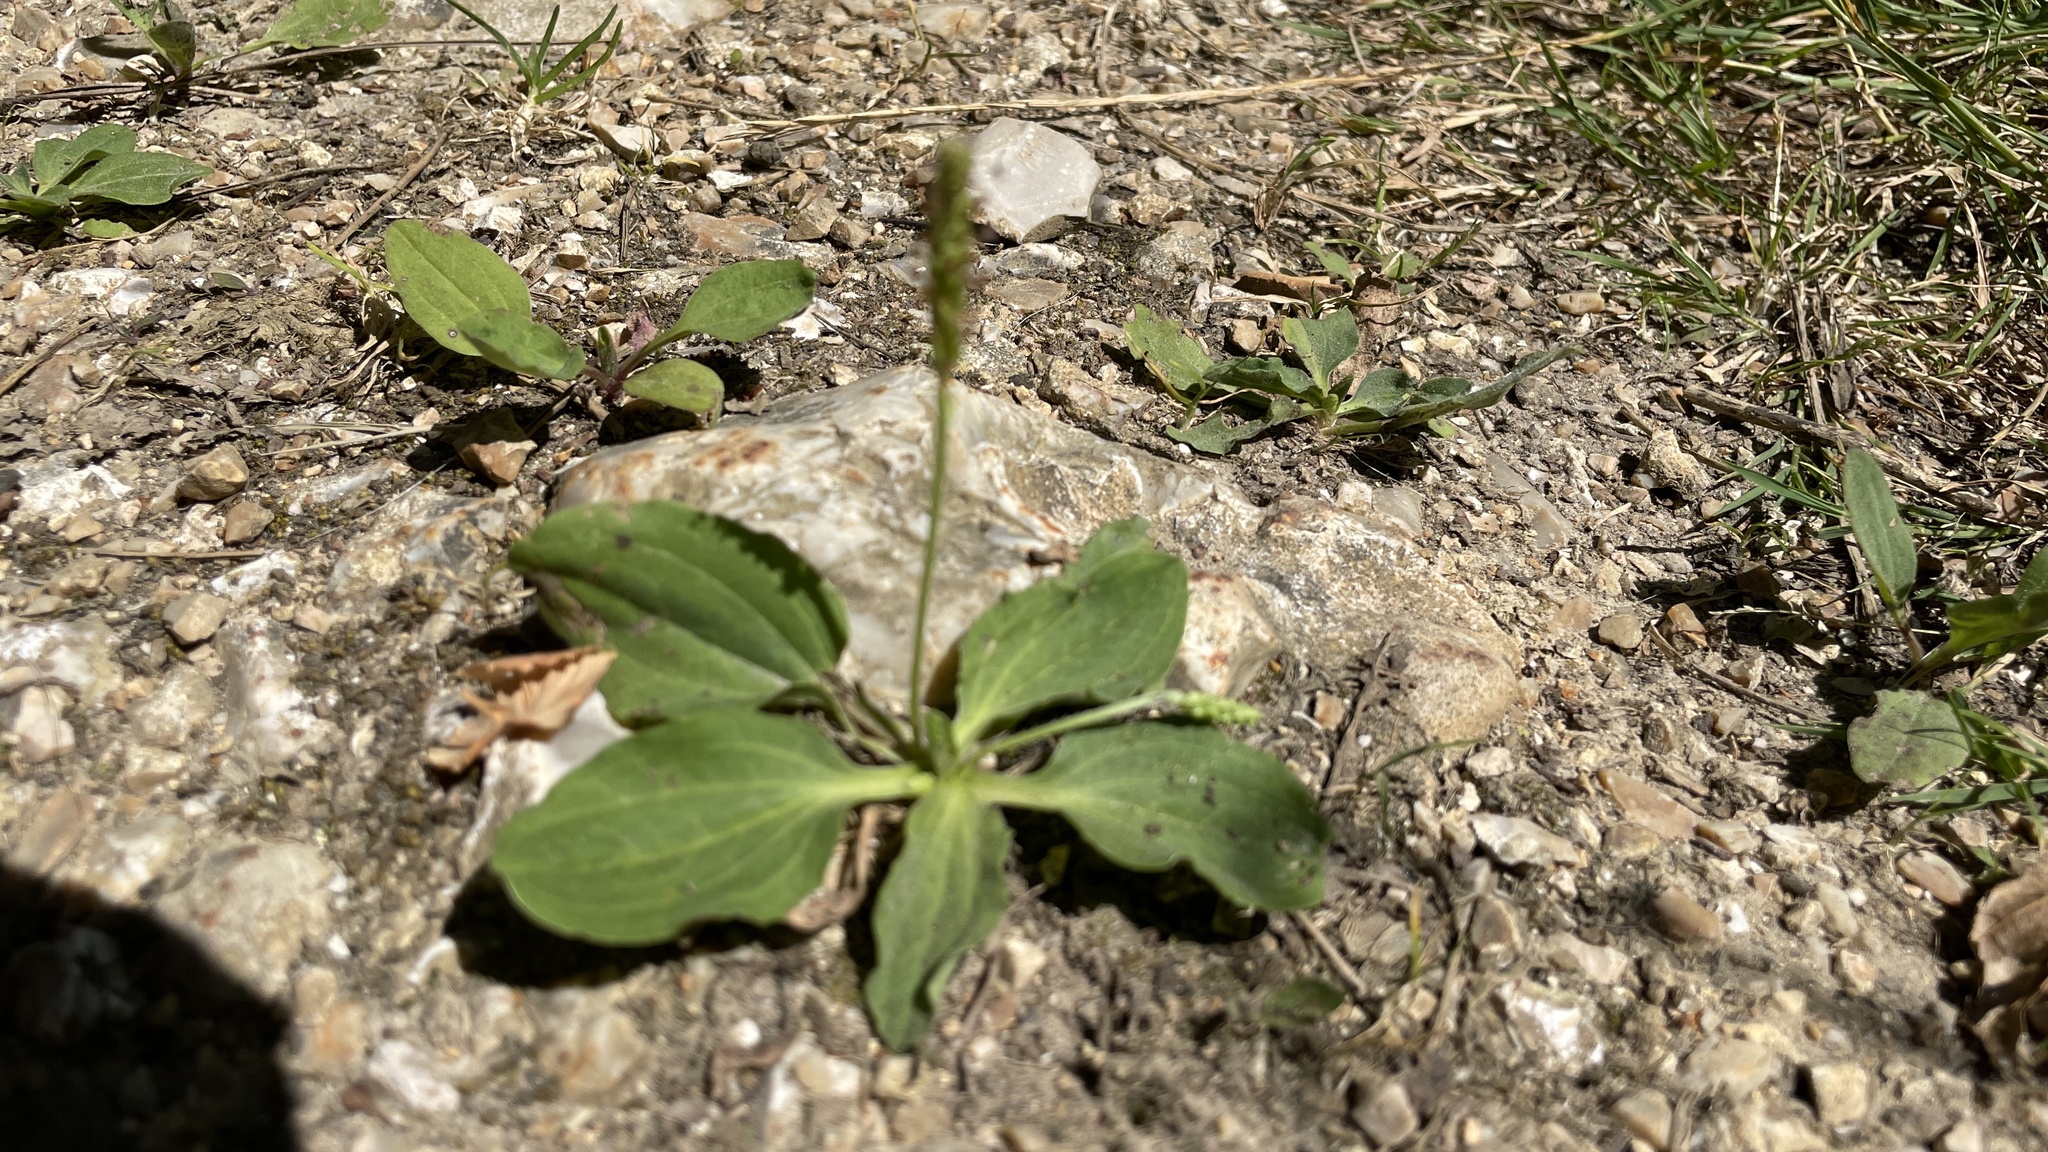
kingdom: Plantae
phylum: Tracheophyta
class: Magnoliopsida
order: Lamiales
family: Plantaginaceae
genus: Plantago
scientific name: Plantago major
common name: Common plantain
